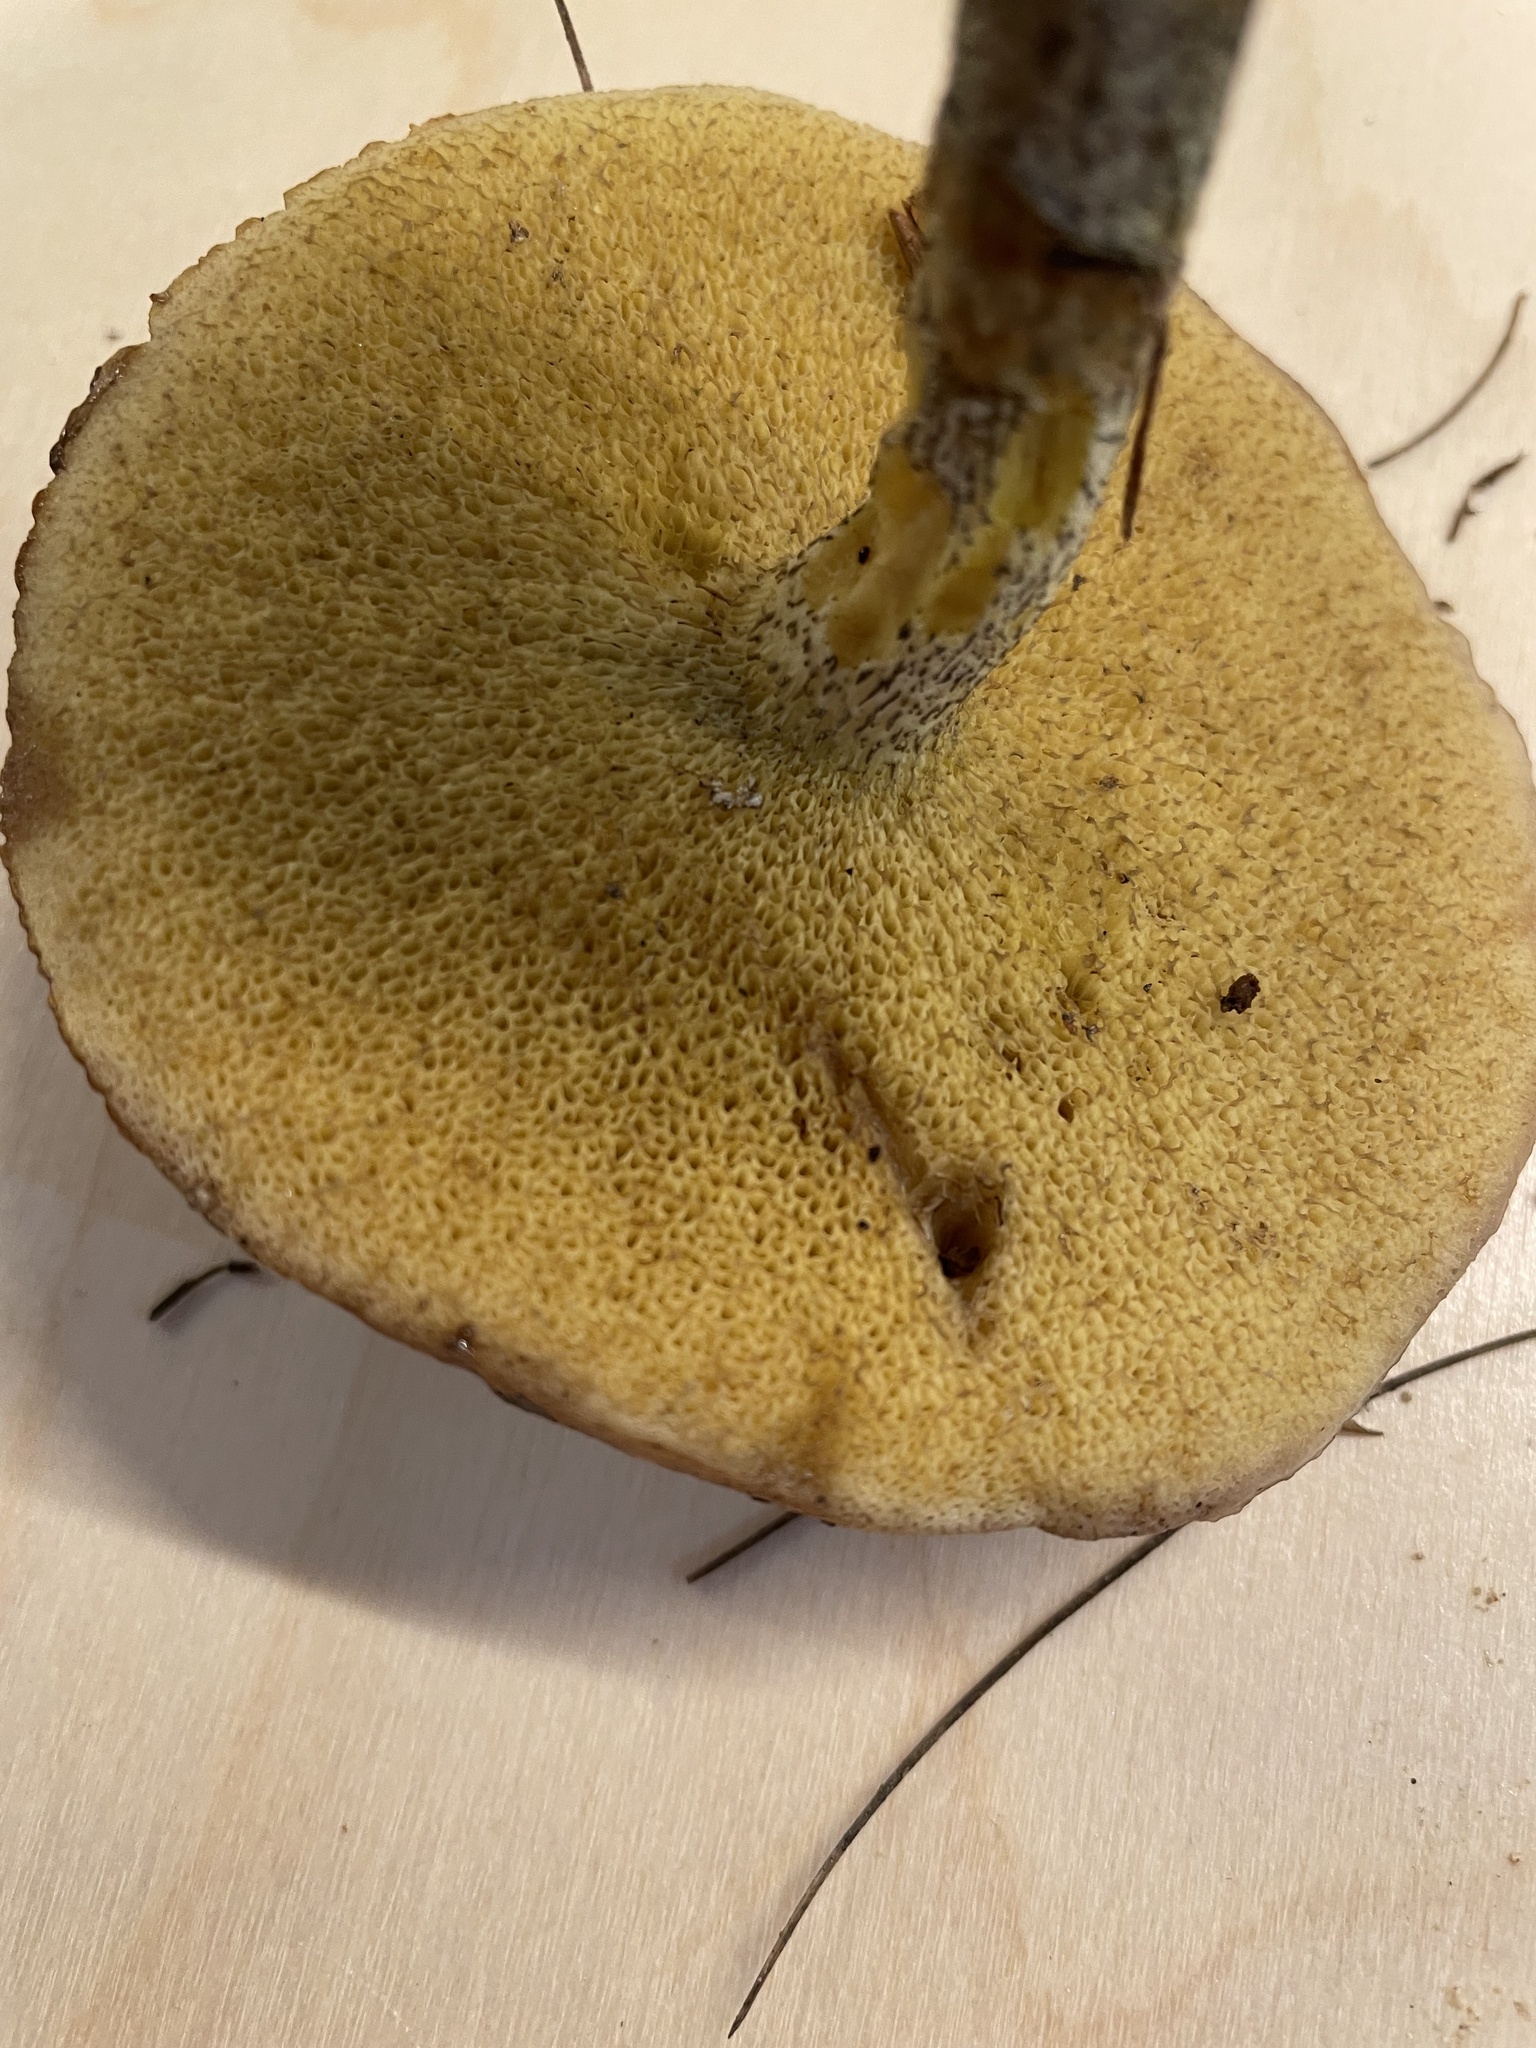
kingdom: Fungi
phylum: Basidiomycota
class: Agaricomycetes
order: Boletales
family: Suillaceae
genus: Suillus
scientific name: Suillus acidus
